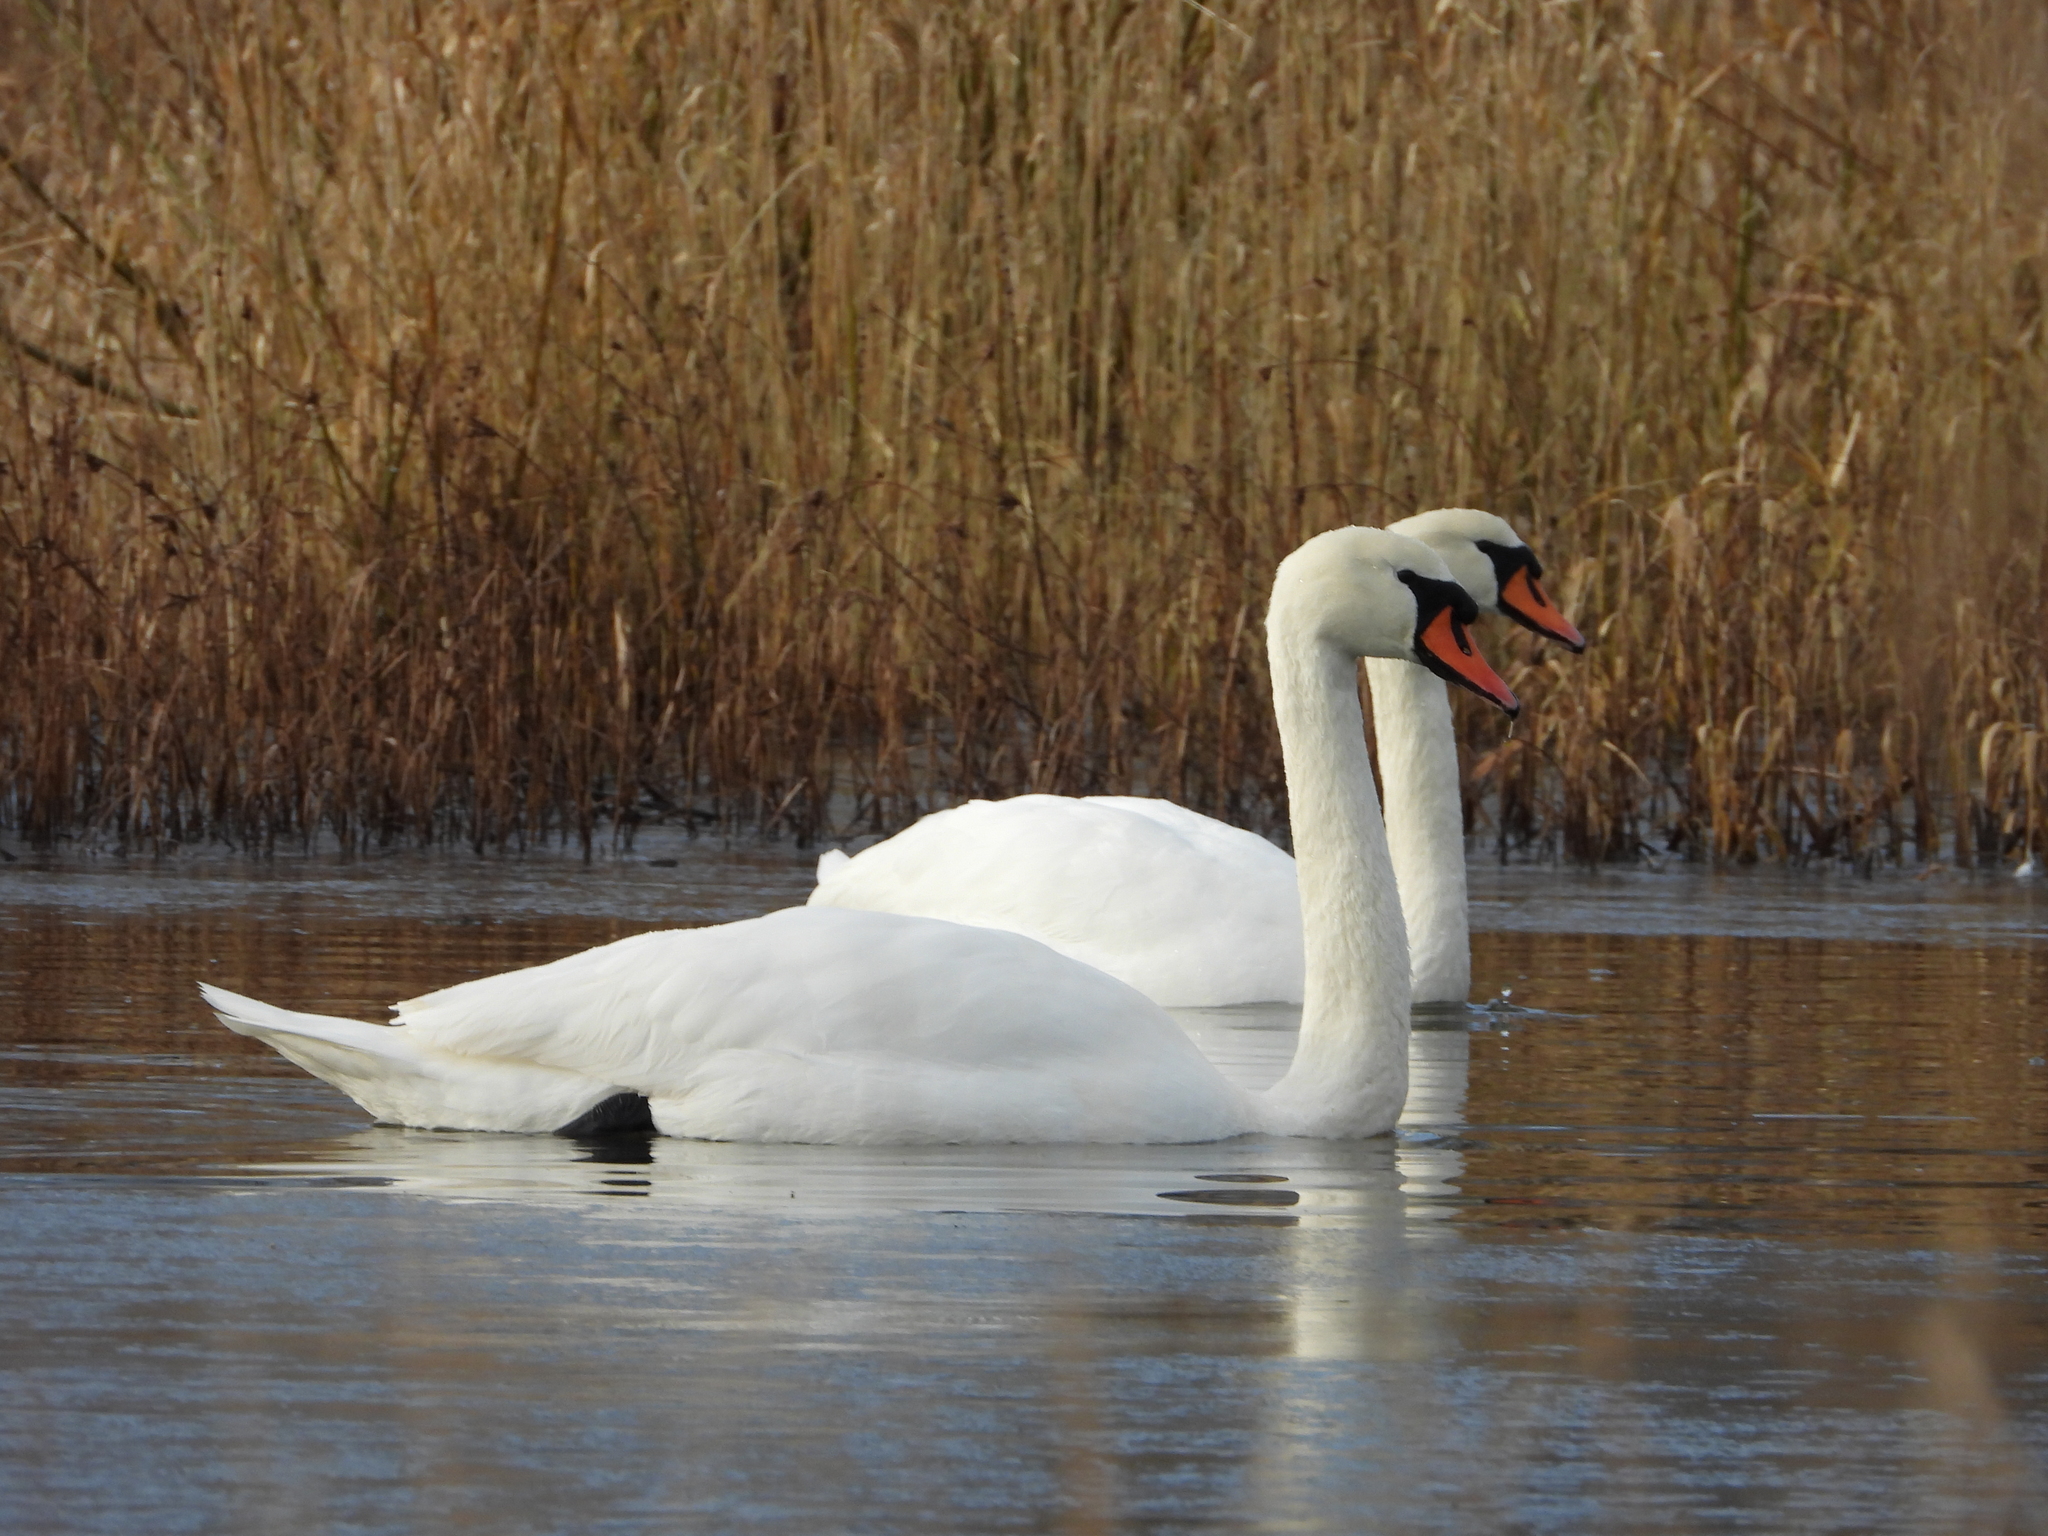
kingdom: Animalia
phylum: Chordata
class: Aves
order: Anseriformes
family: Anatidae
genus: Cygnus
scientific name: Cygnus olor
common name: Mute swan
